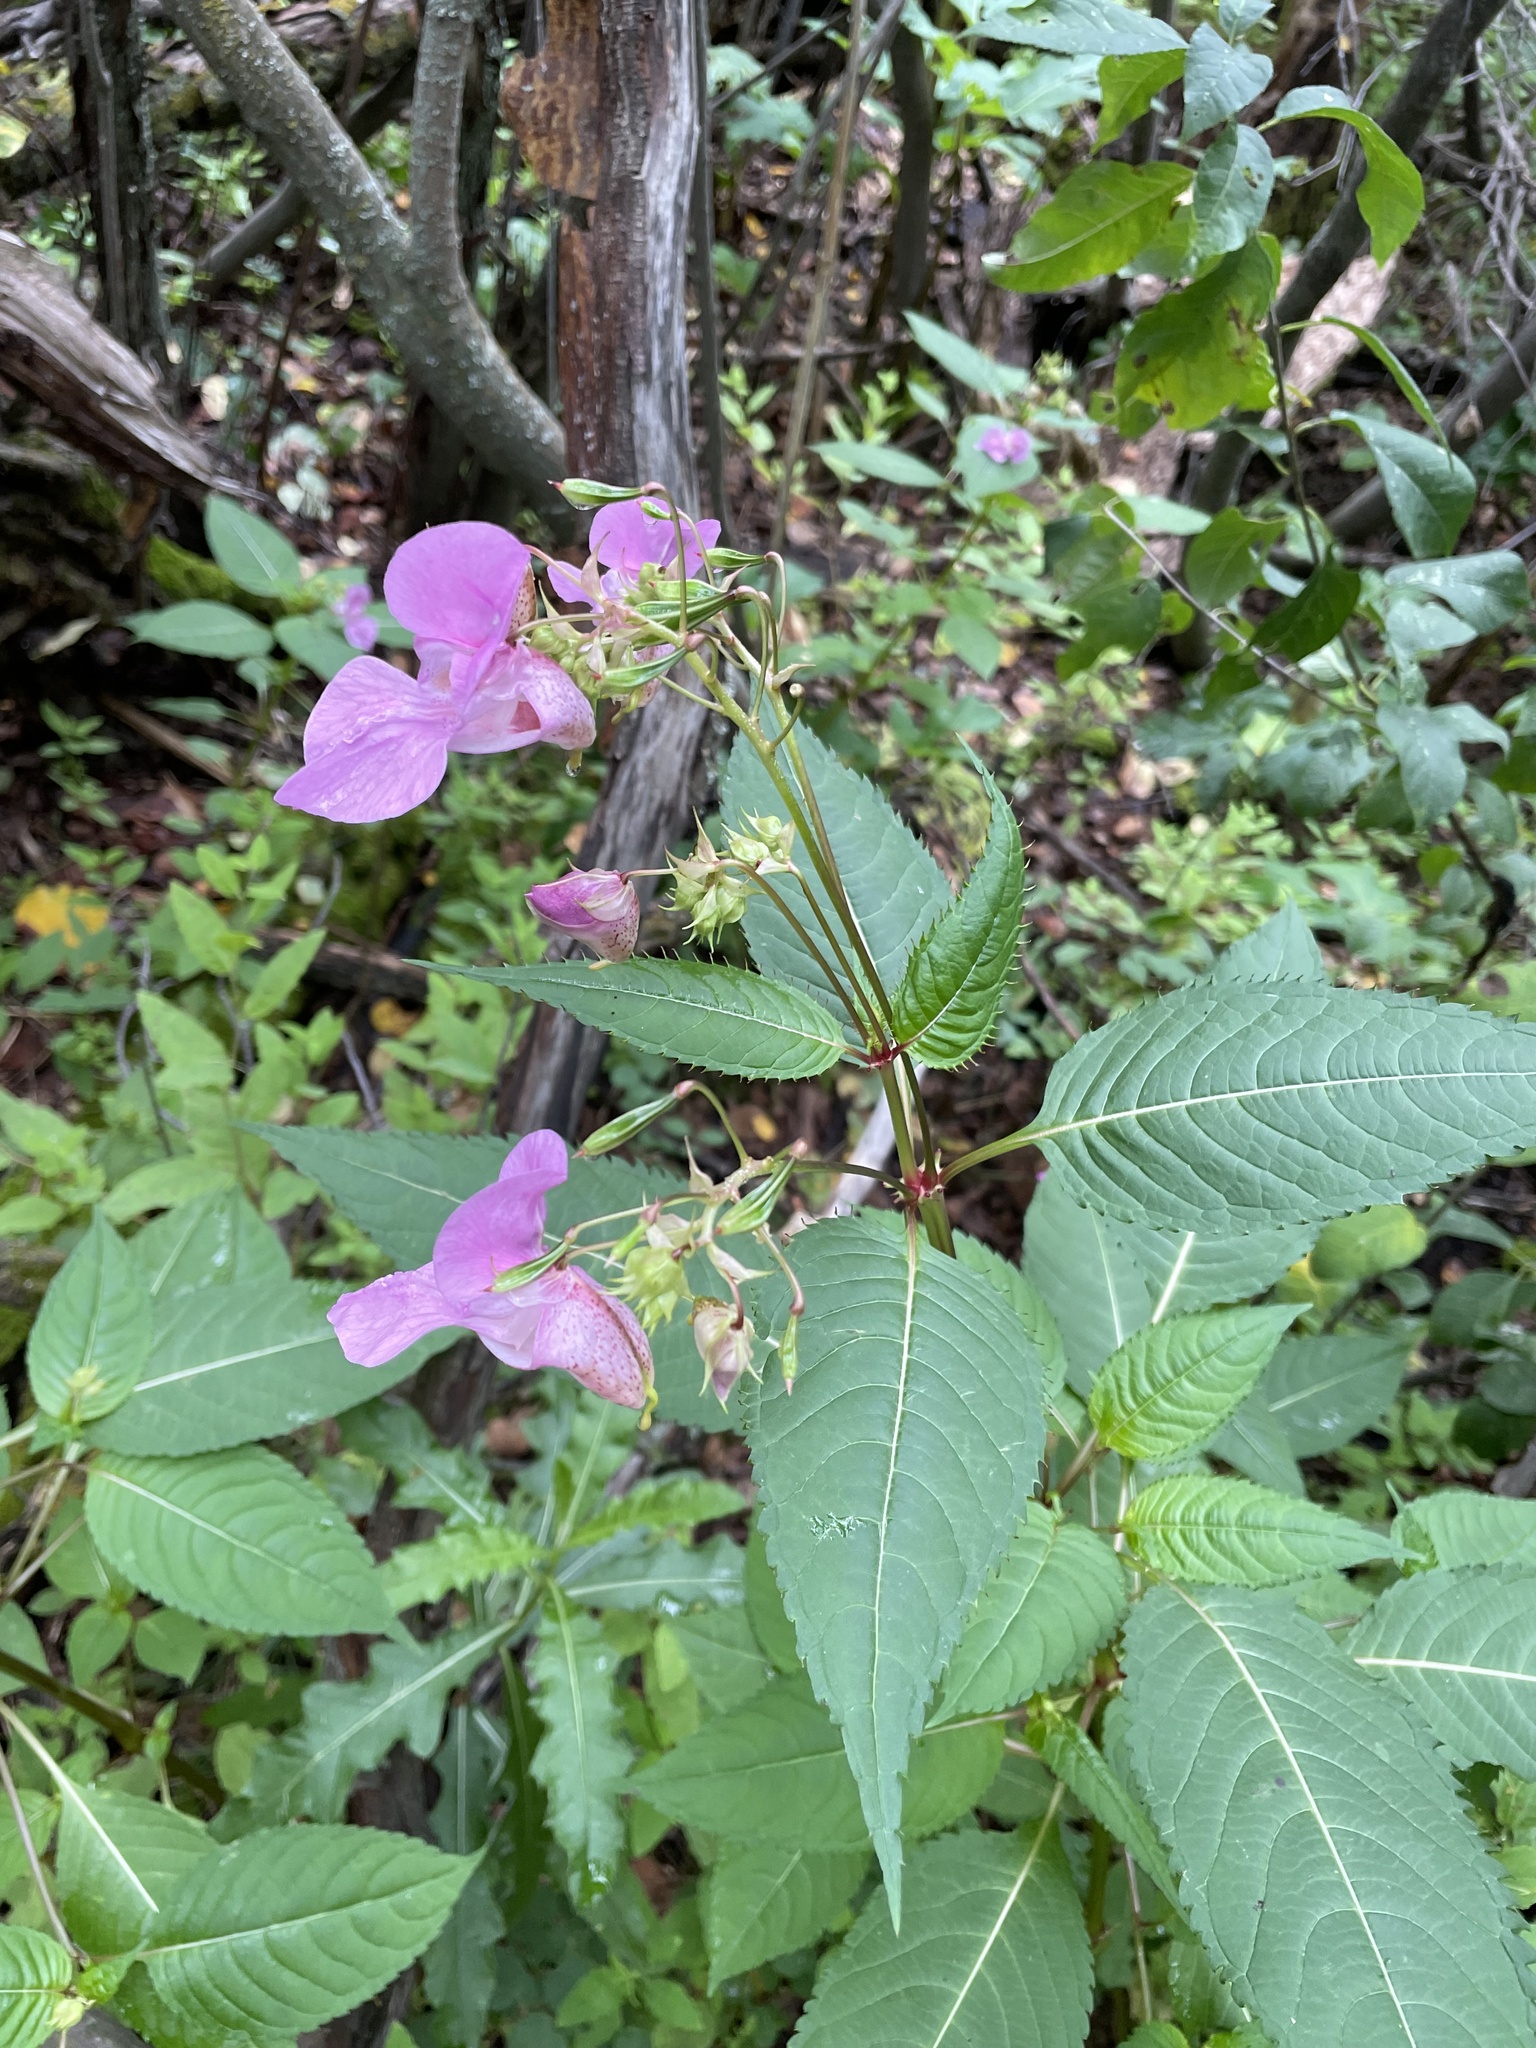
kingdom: Plantae
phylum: Tracheophyta
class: Magnoliopsida
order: Ericales
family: Balsaminaceae
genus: Impatiens
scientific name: Impatiens glandulifera
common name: Himalayan balsam
